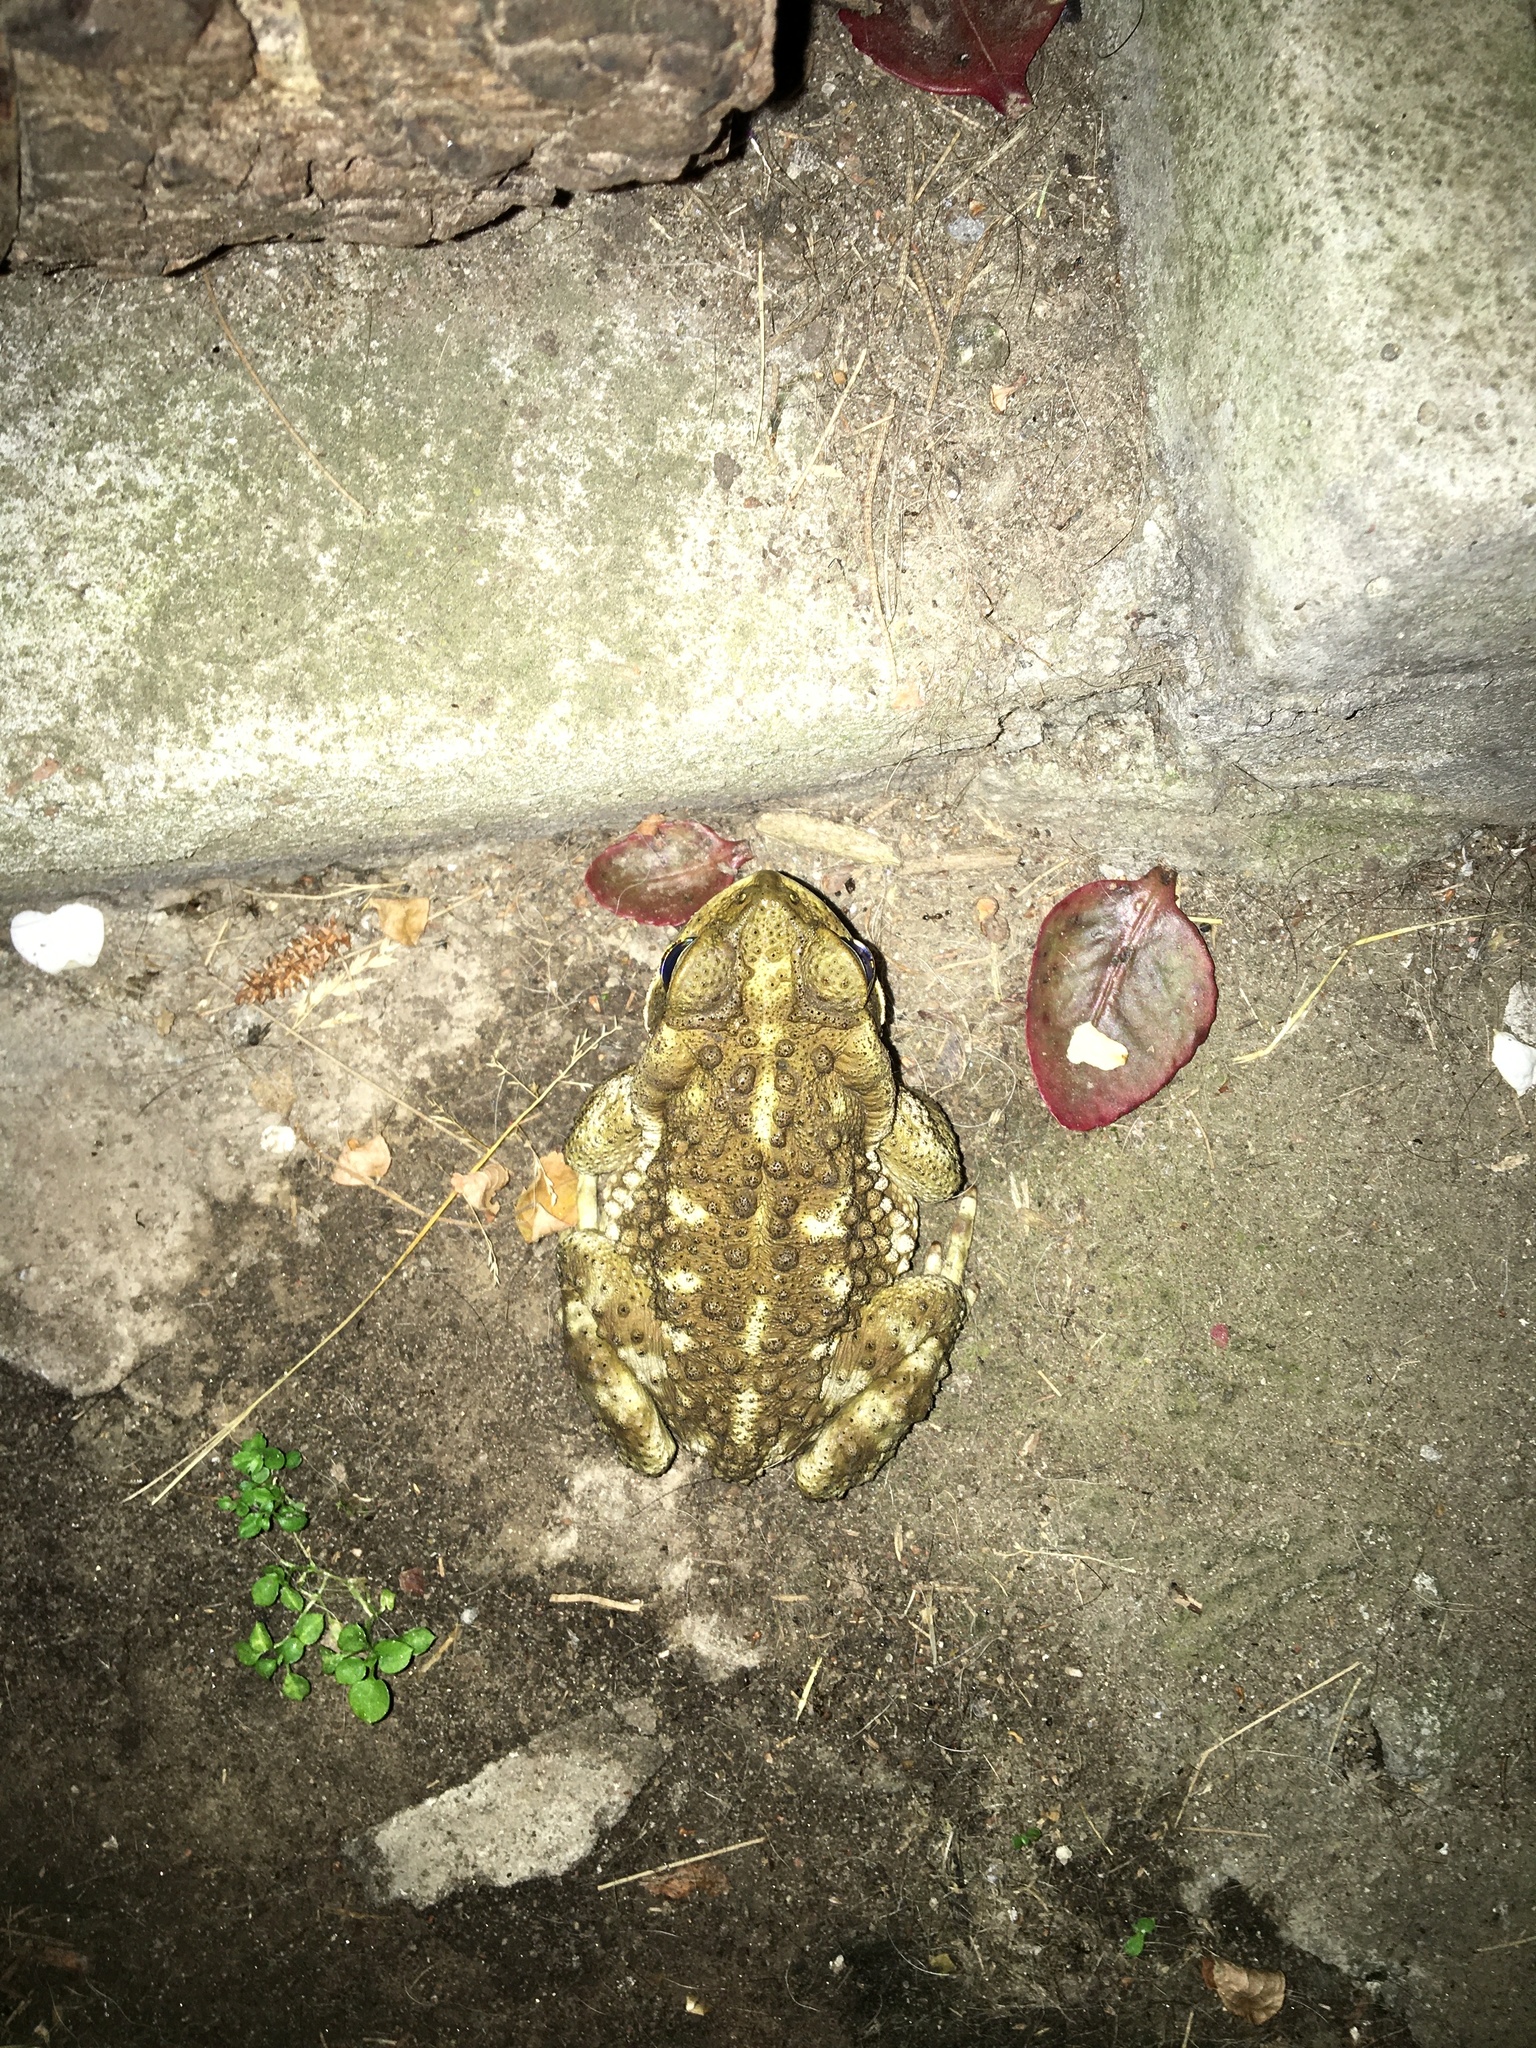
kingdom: Animalia
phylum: Chordata
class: Amphibia
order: Anura
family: Bufonidae
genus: Rhinella
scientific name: Rhinella arenarum
